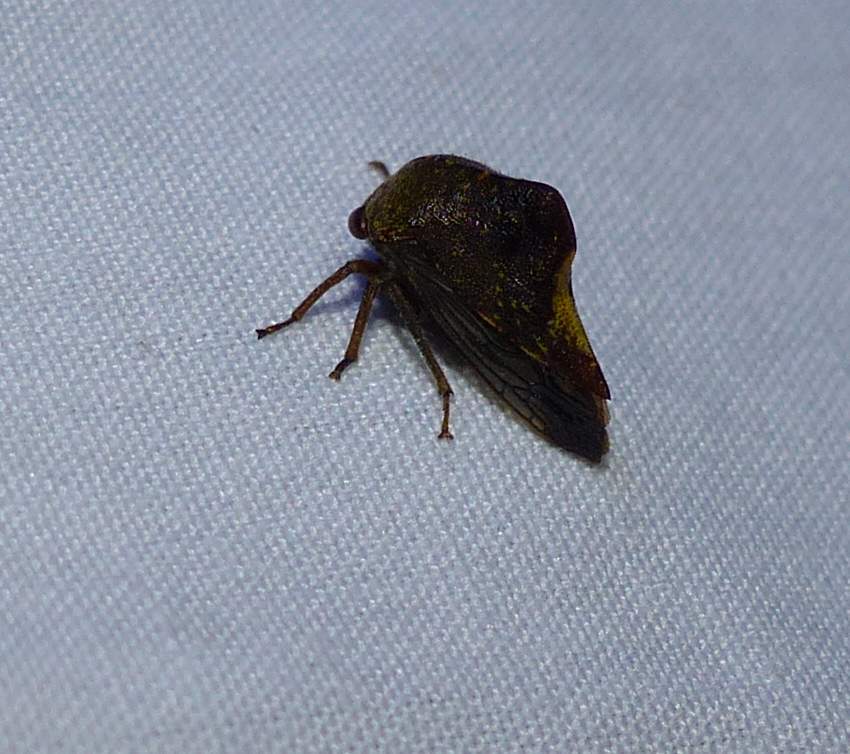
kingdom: Animalia
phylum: Arthropoda
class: Insecta
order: Hemiptera
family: Membracidae
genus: Telamona
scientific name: Telamona monticola
